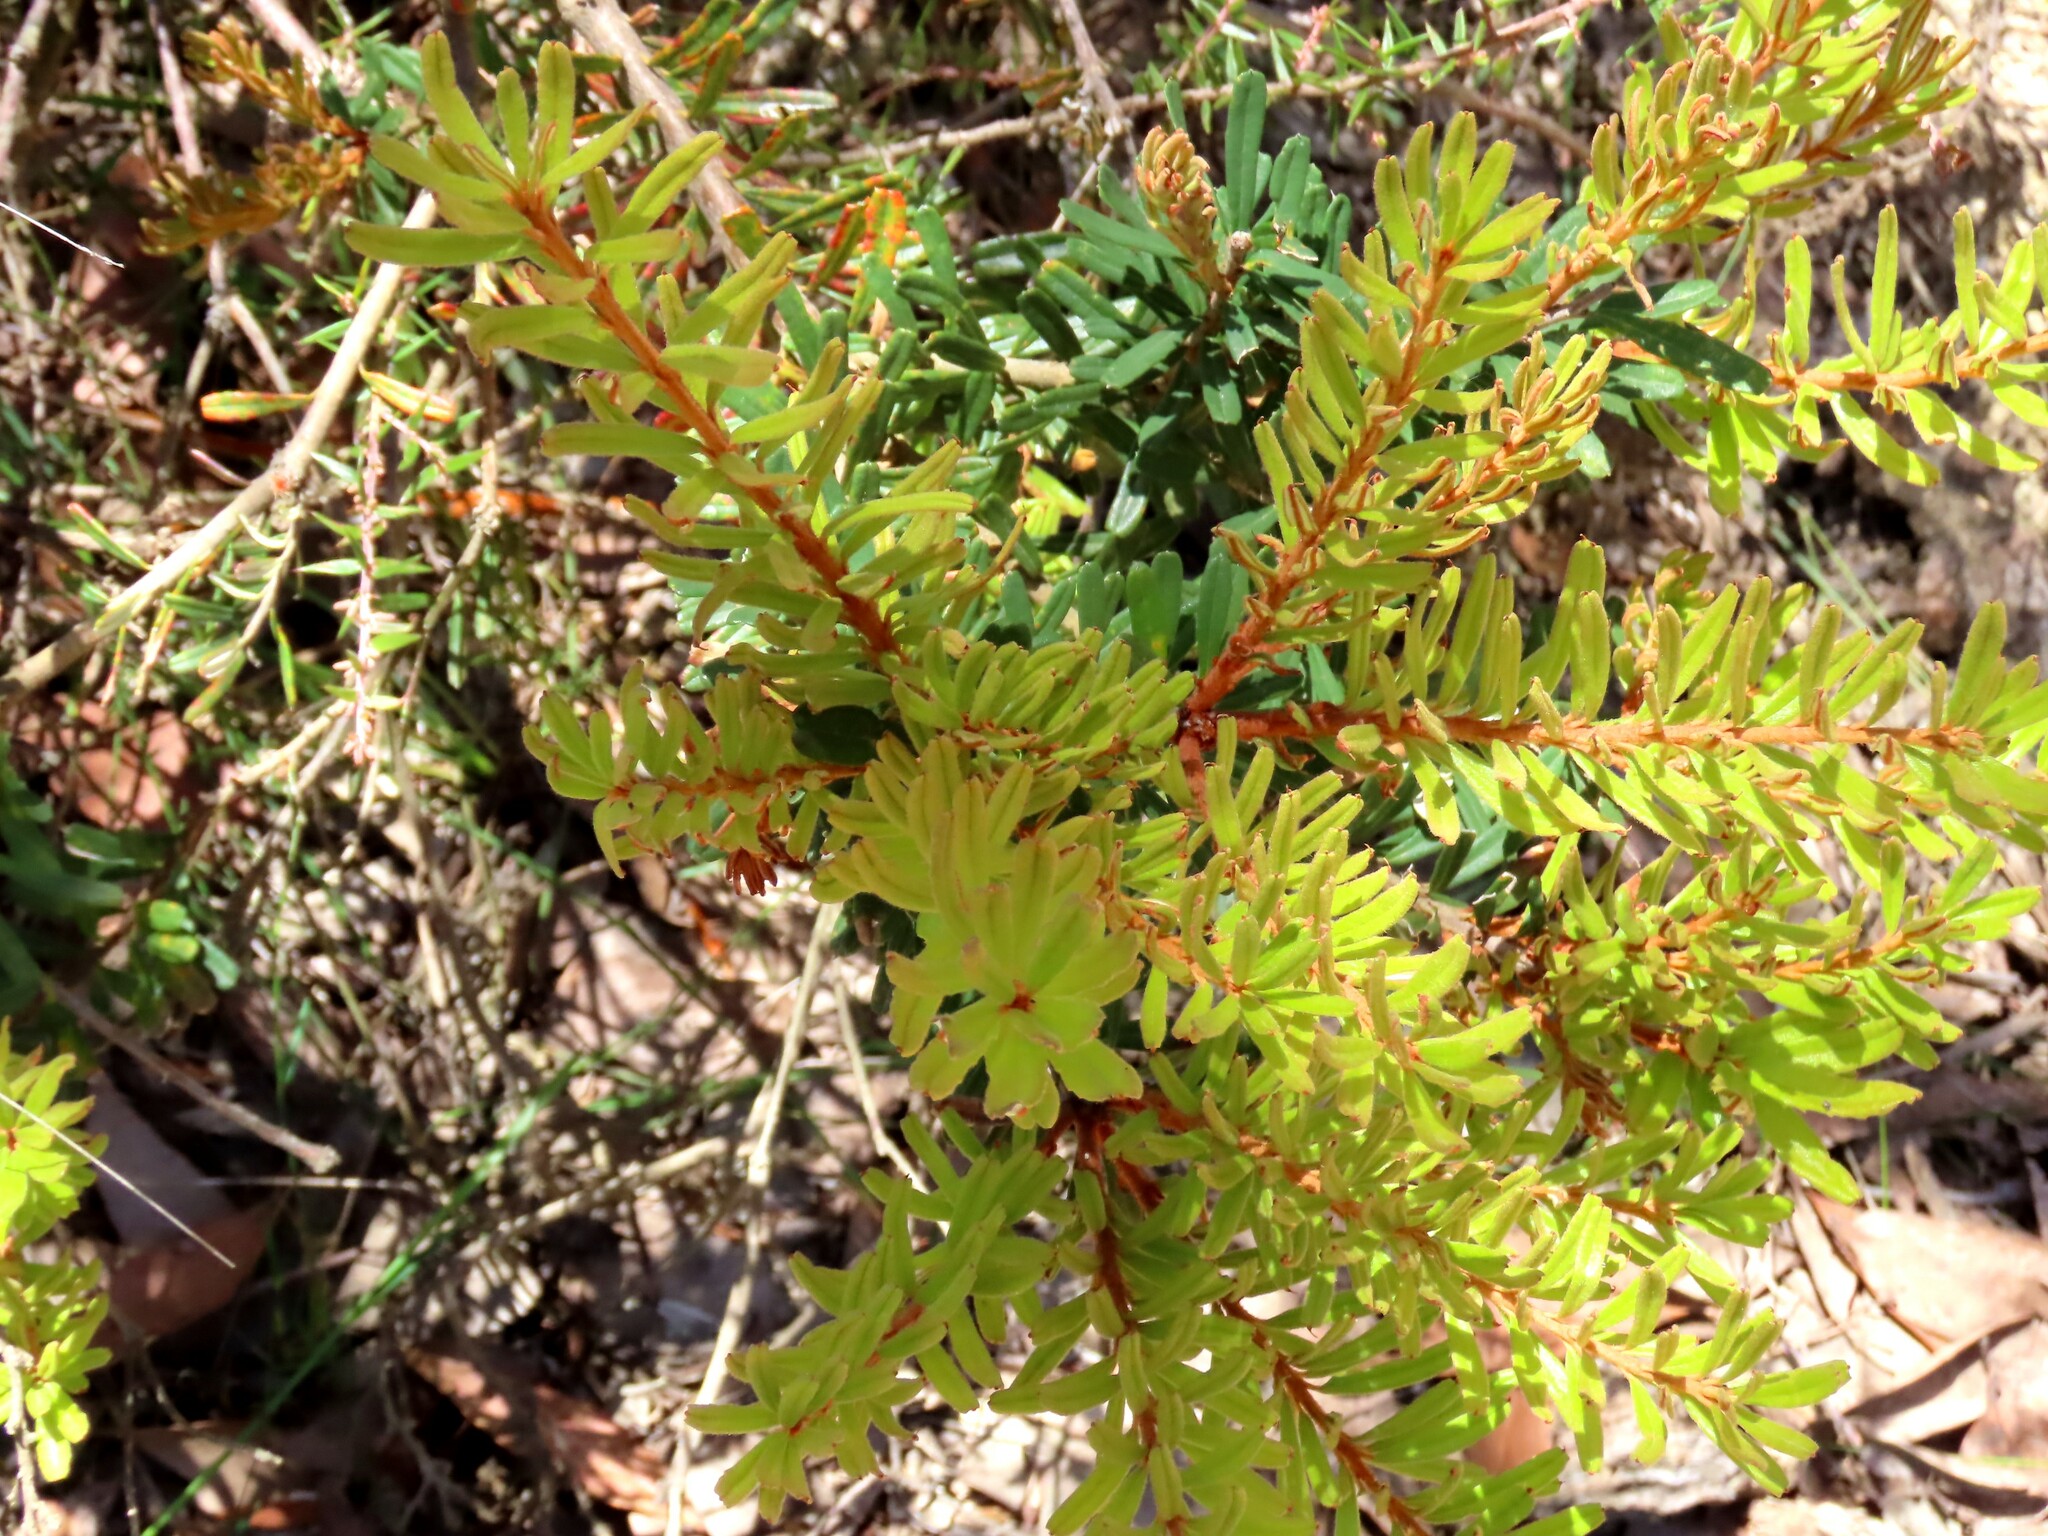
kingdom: Plantae
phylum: Tracheophyta
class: Magnoliopsida
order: Proteales
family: Proteaceae
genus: Banksia
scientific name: Banksia marginata
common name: Silver banksia
